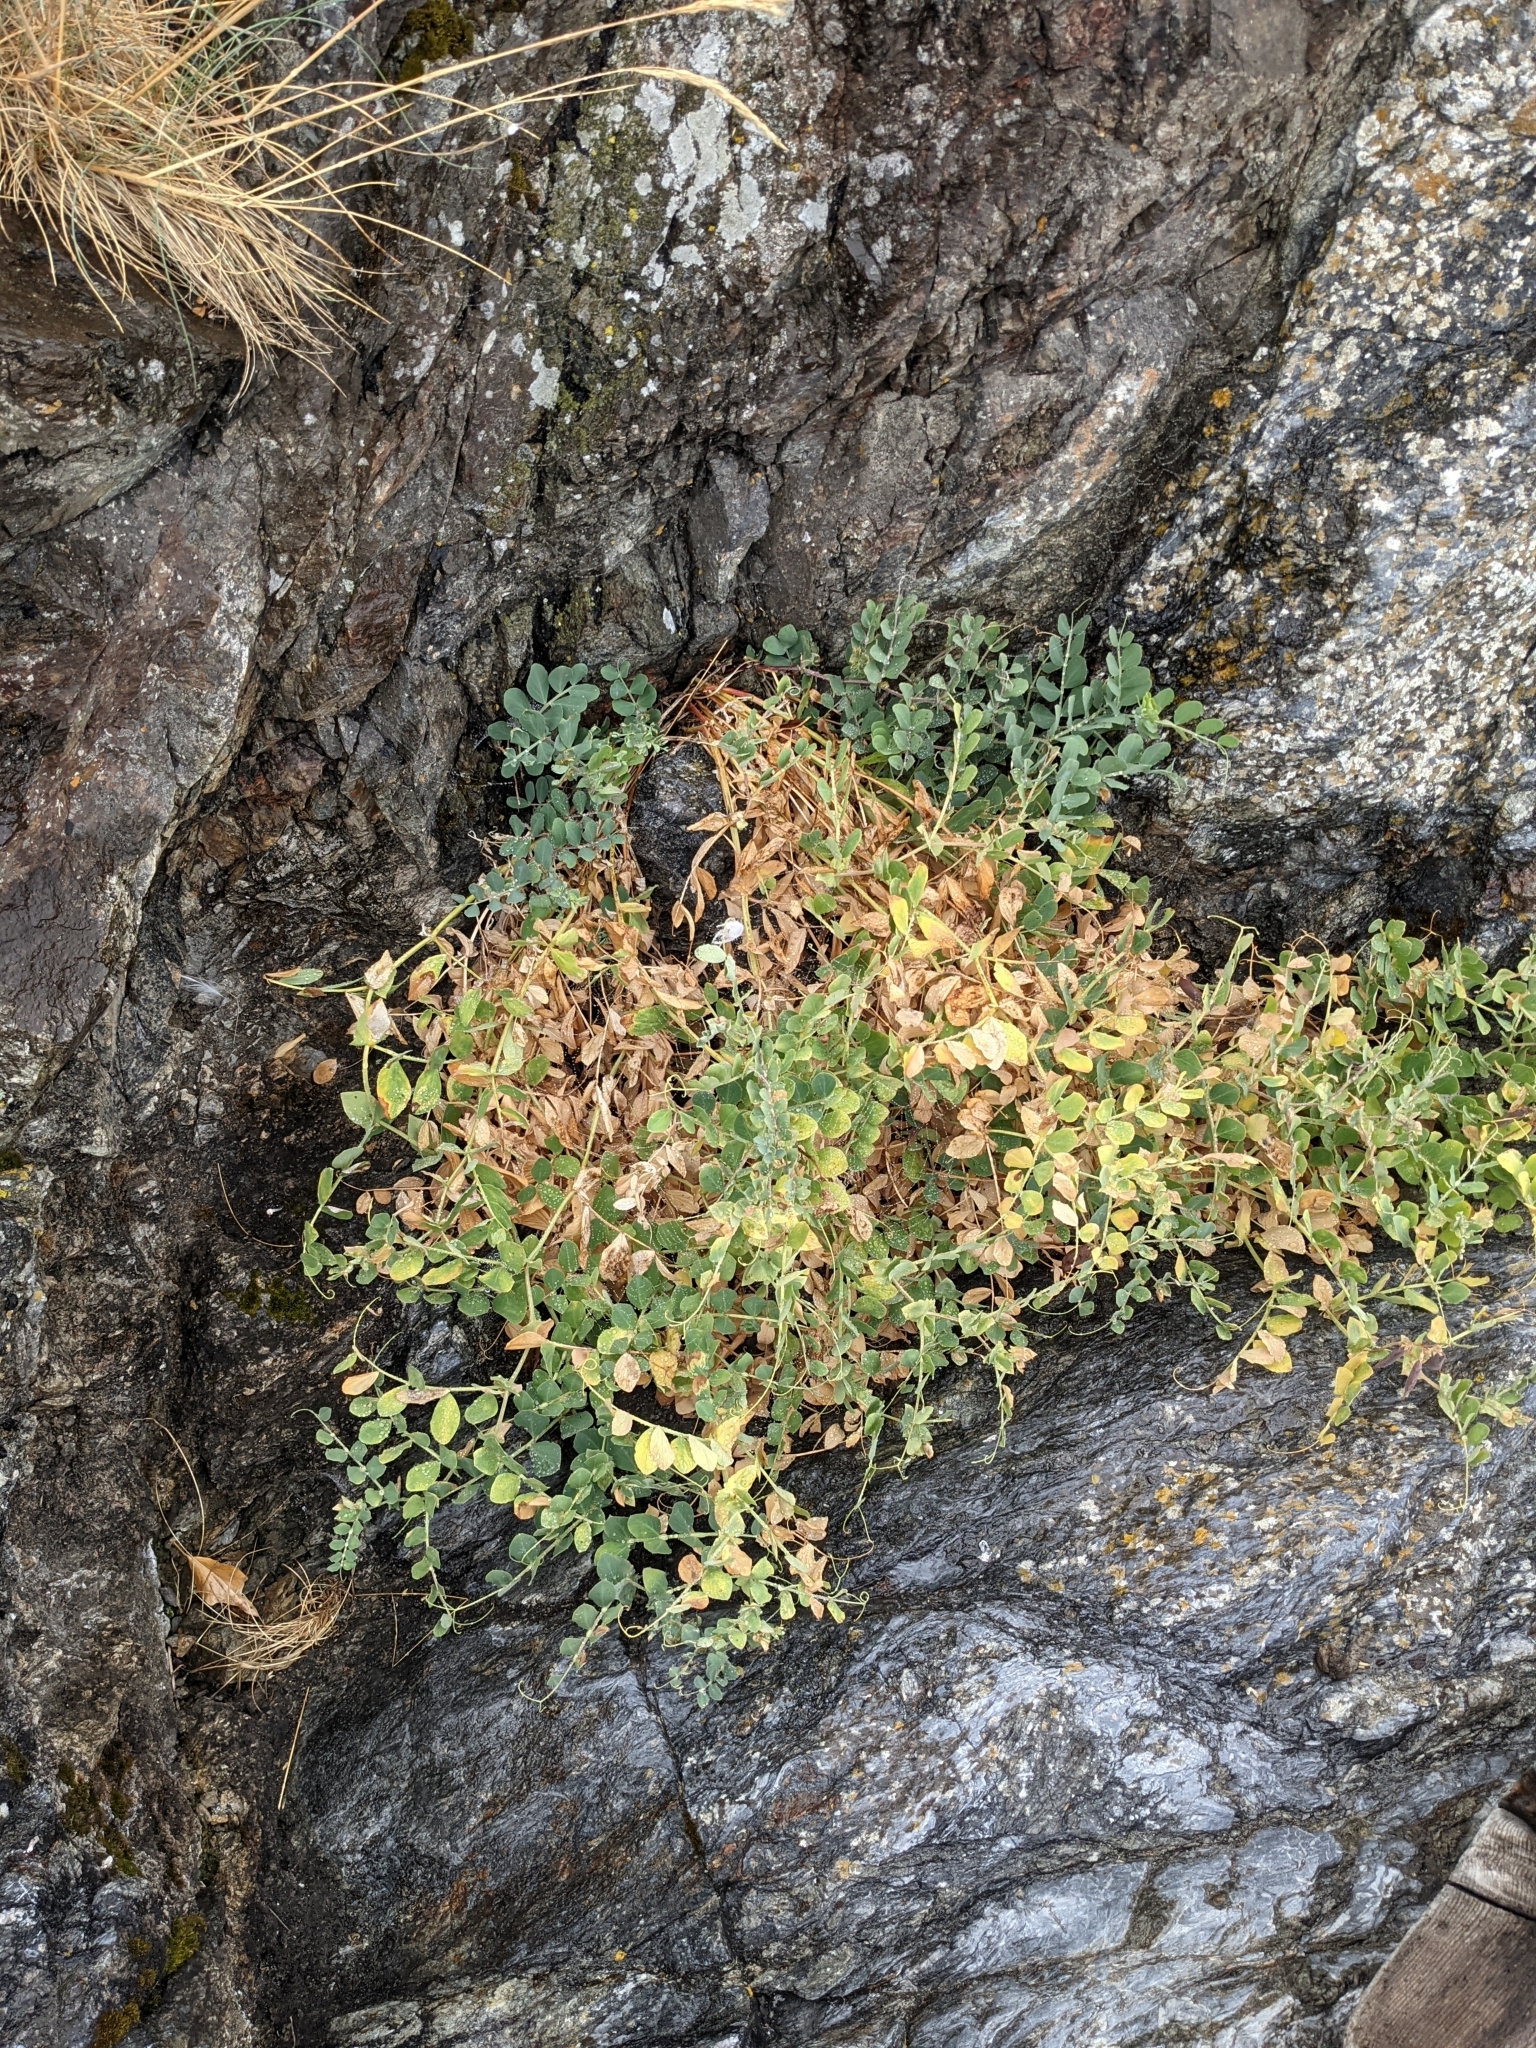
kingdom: Plantae
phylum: Tracheophyta
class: Magnoliopsida
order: Fabales
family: Fabaceae
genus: Lathyrus
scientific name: Lathyrus japonicus
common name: Sea pea
